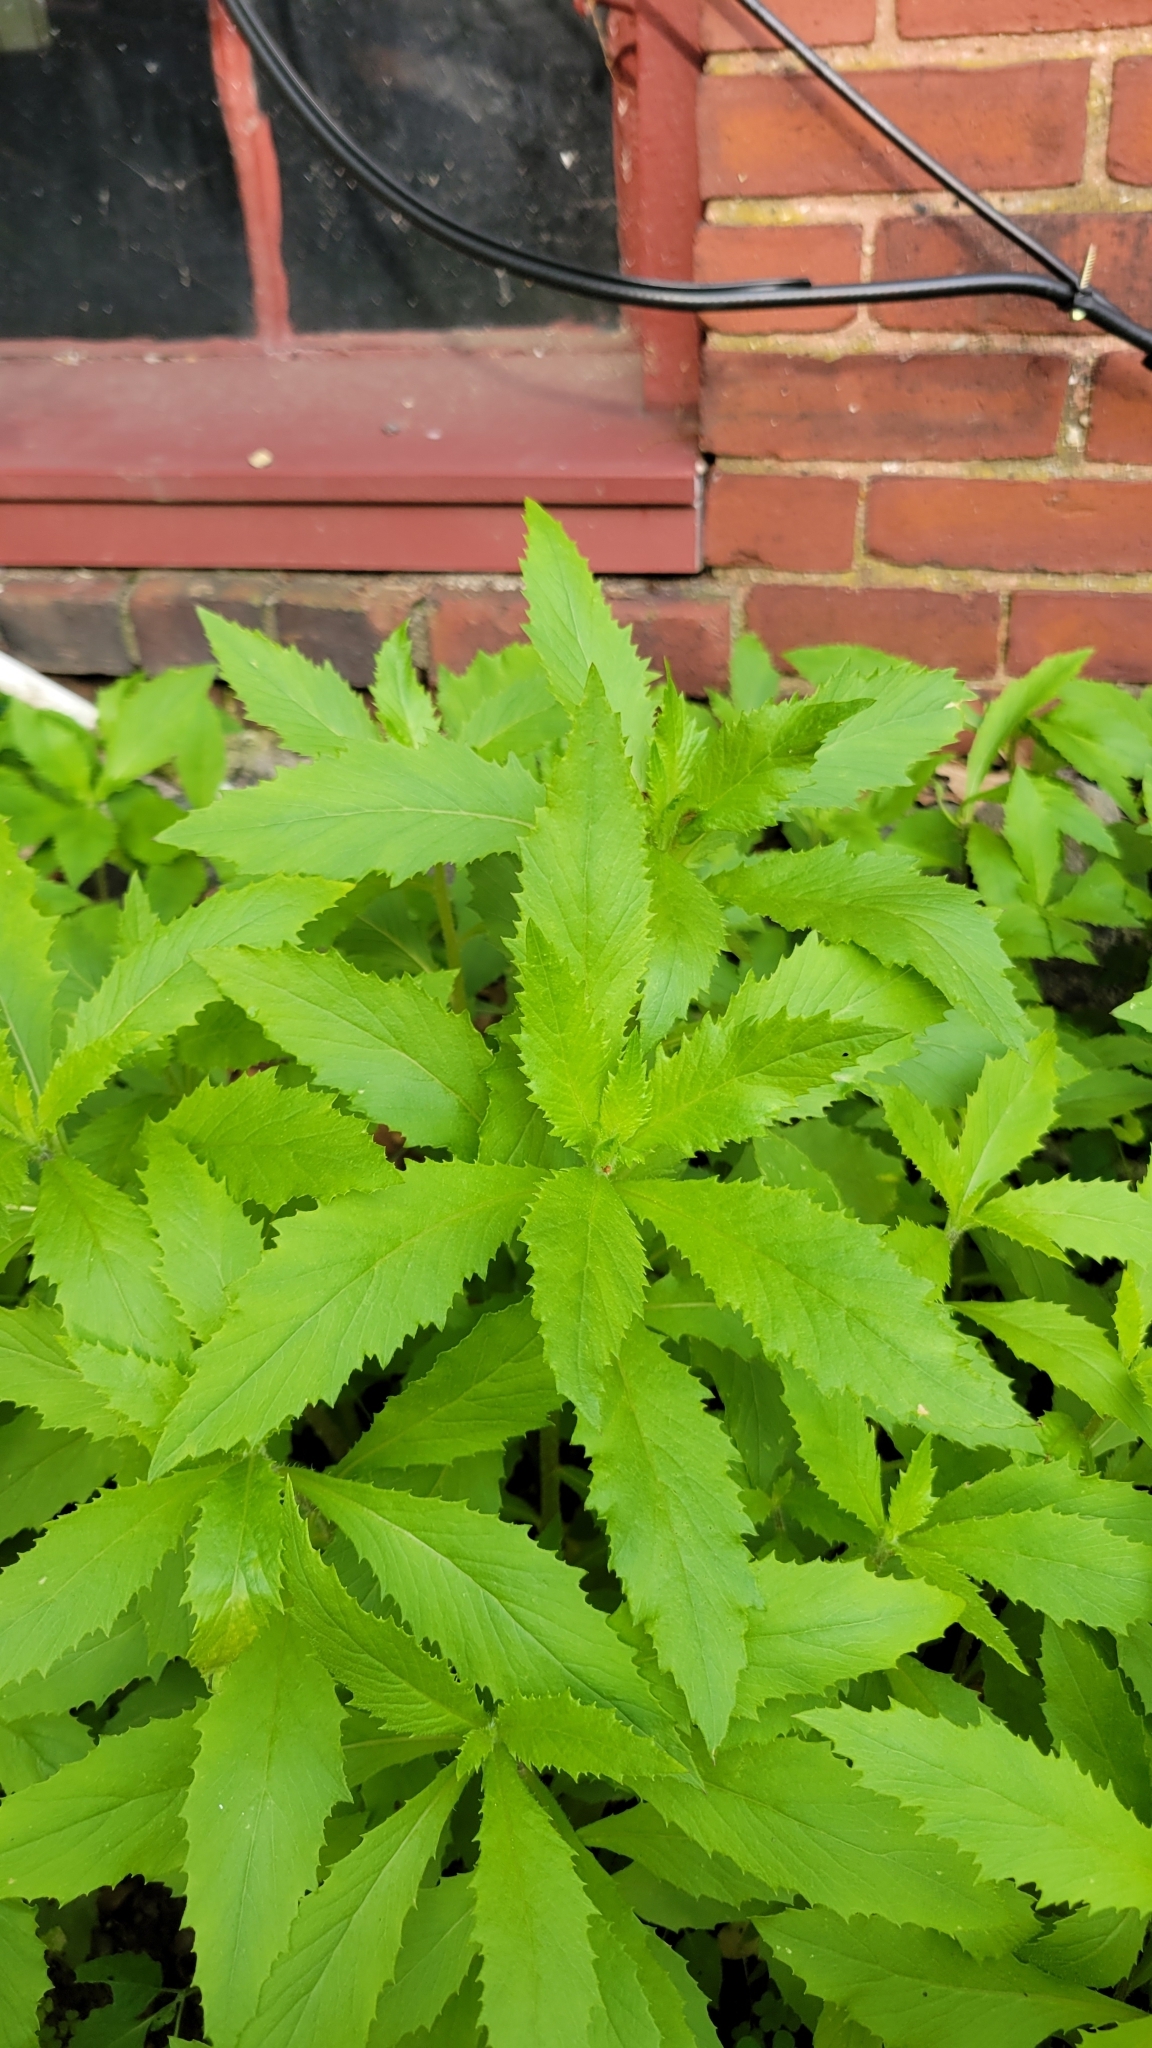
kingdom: Plantae
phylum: Tracheophyta
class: Magnoliopsida
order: Asterales
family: Asteraceae
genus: Erechtites
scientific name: Erechtites hieraciifolius
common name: American burnweed
